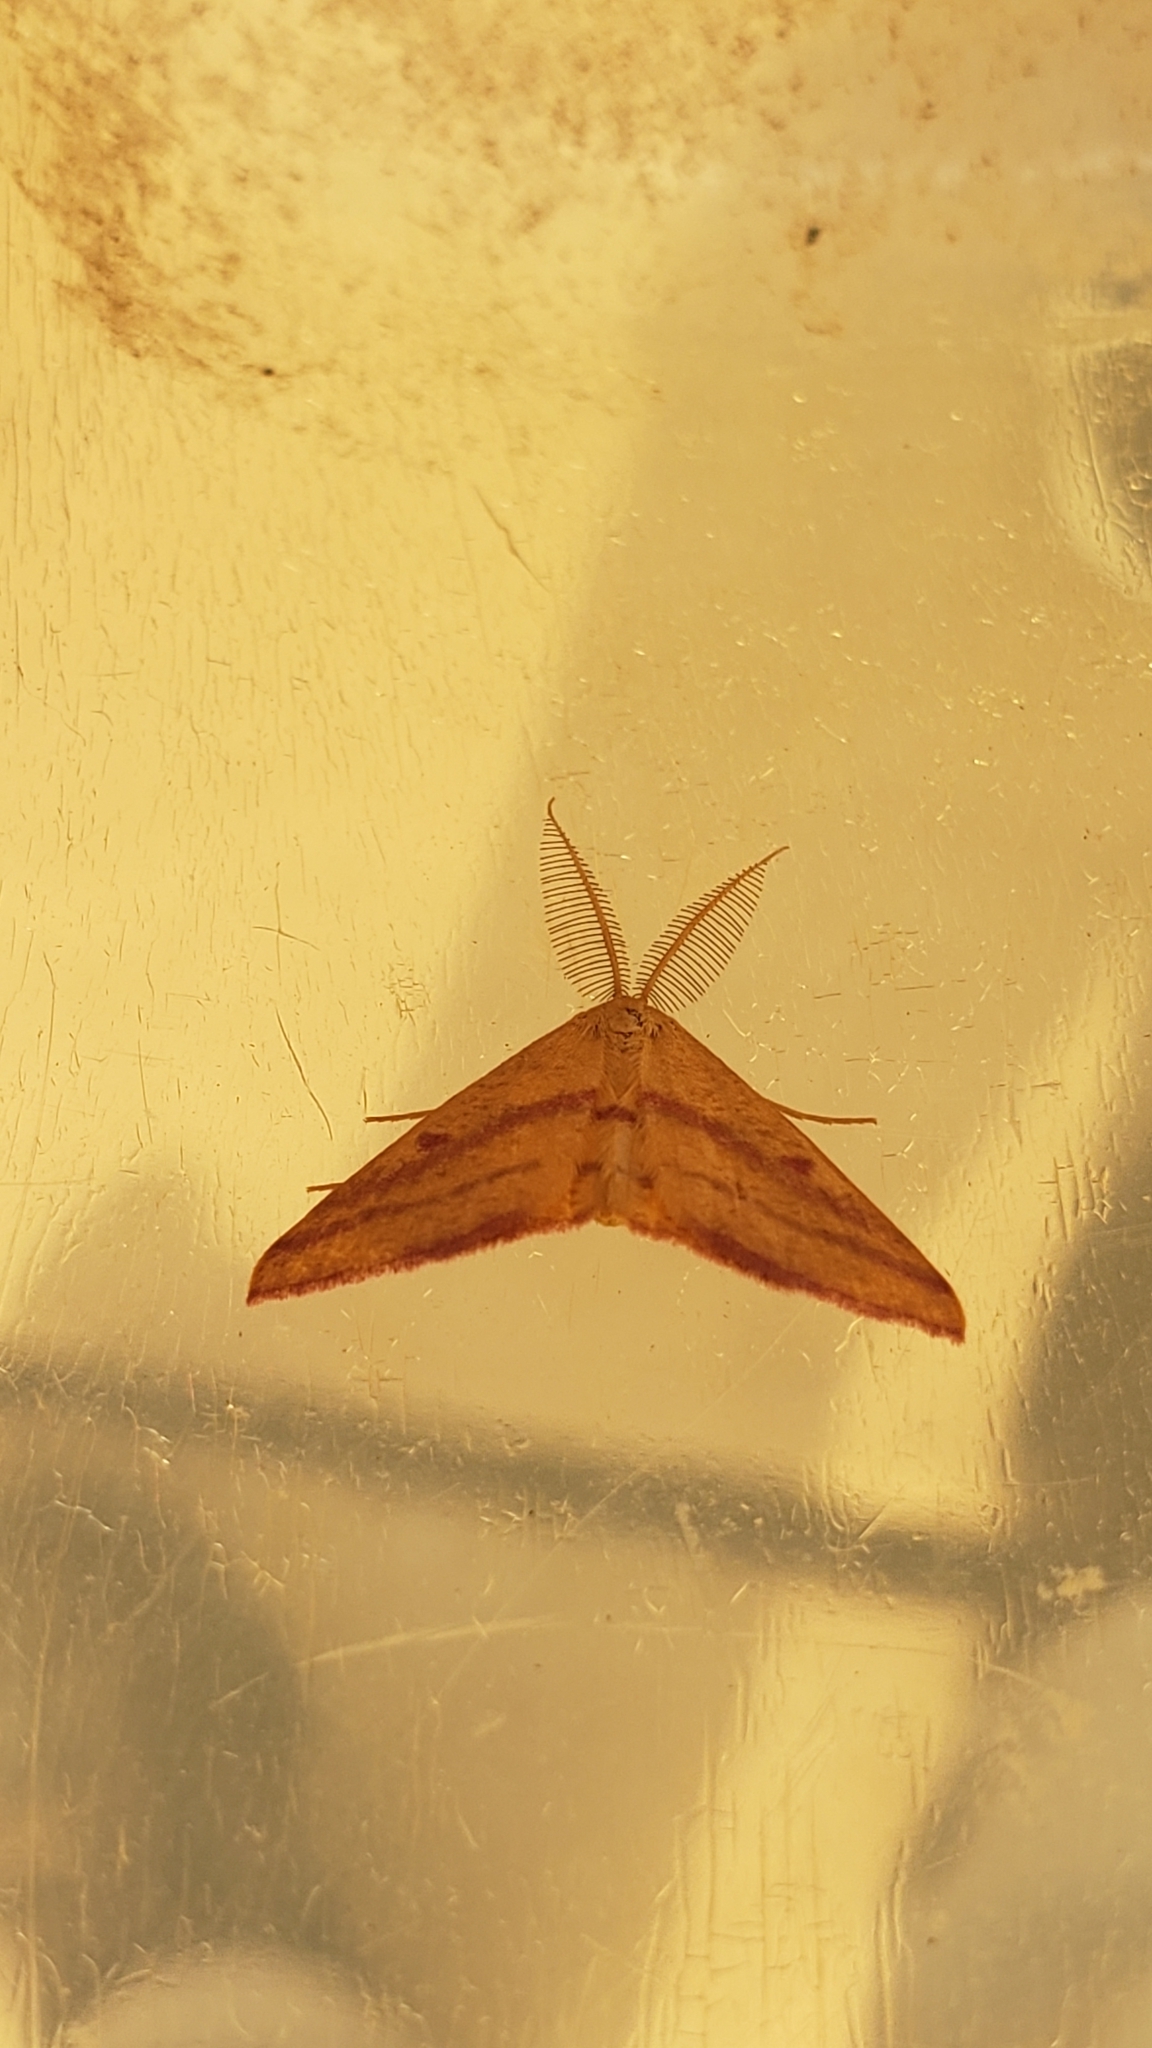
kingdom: Animalia
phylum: Arthropoda
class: Insecta
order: Lepidoptera
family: Geometridae
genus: Haematopis
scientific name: Haematopis grataria
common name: Chickweed geometer
